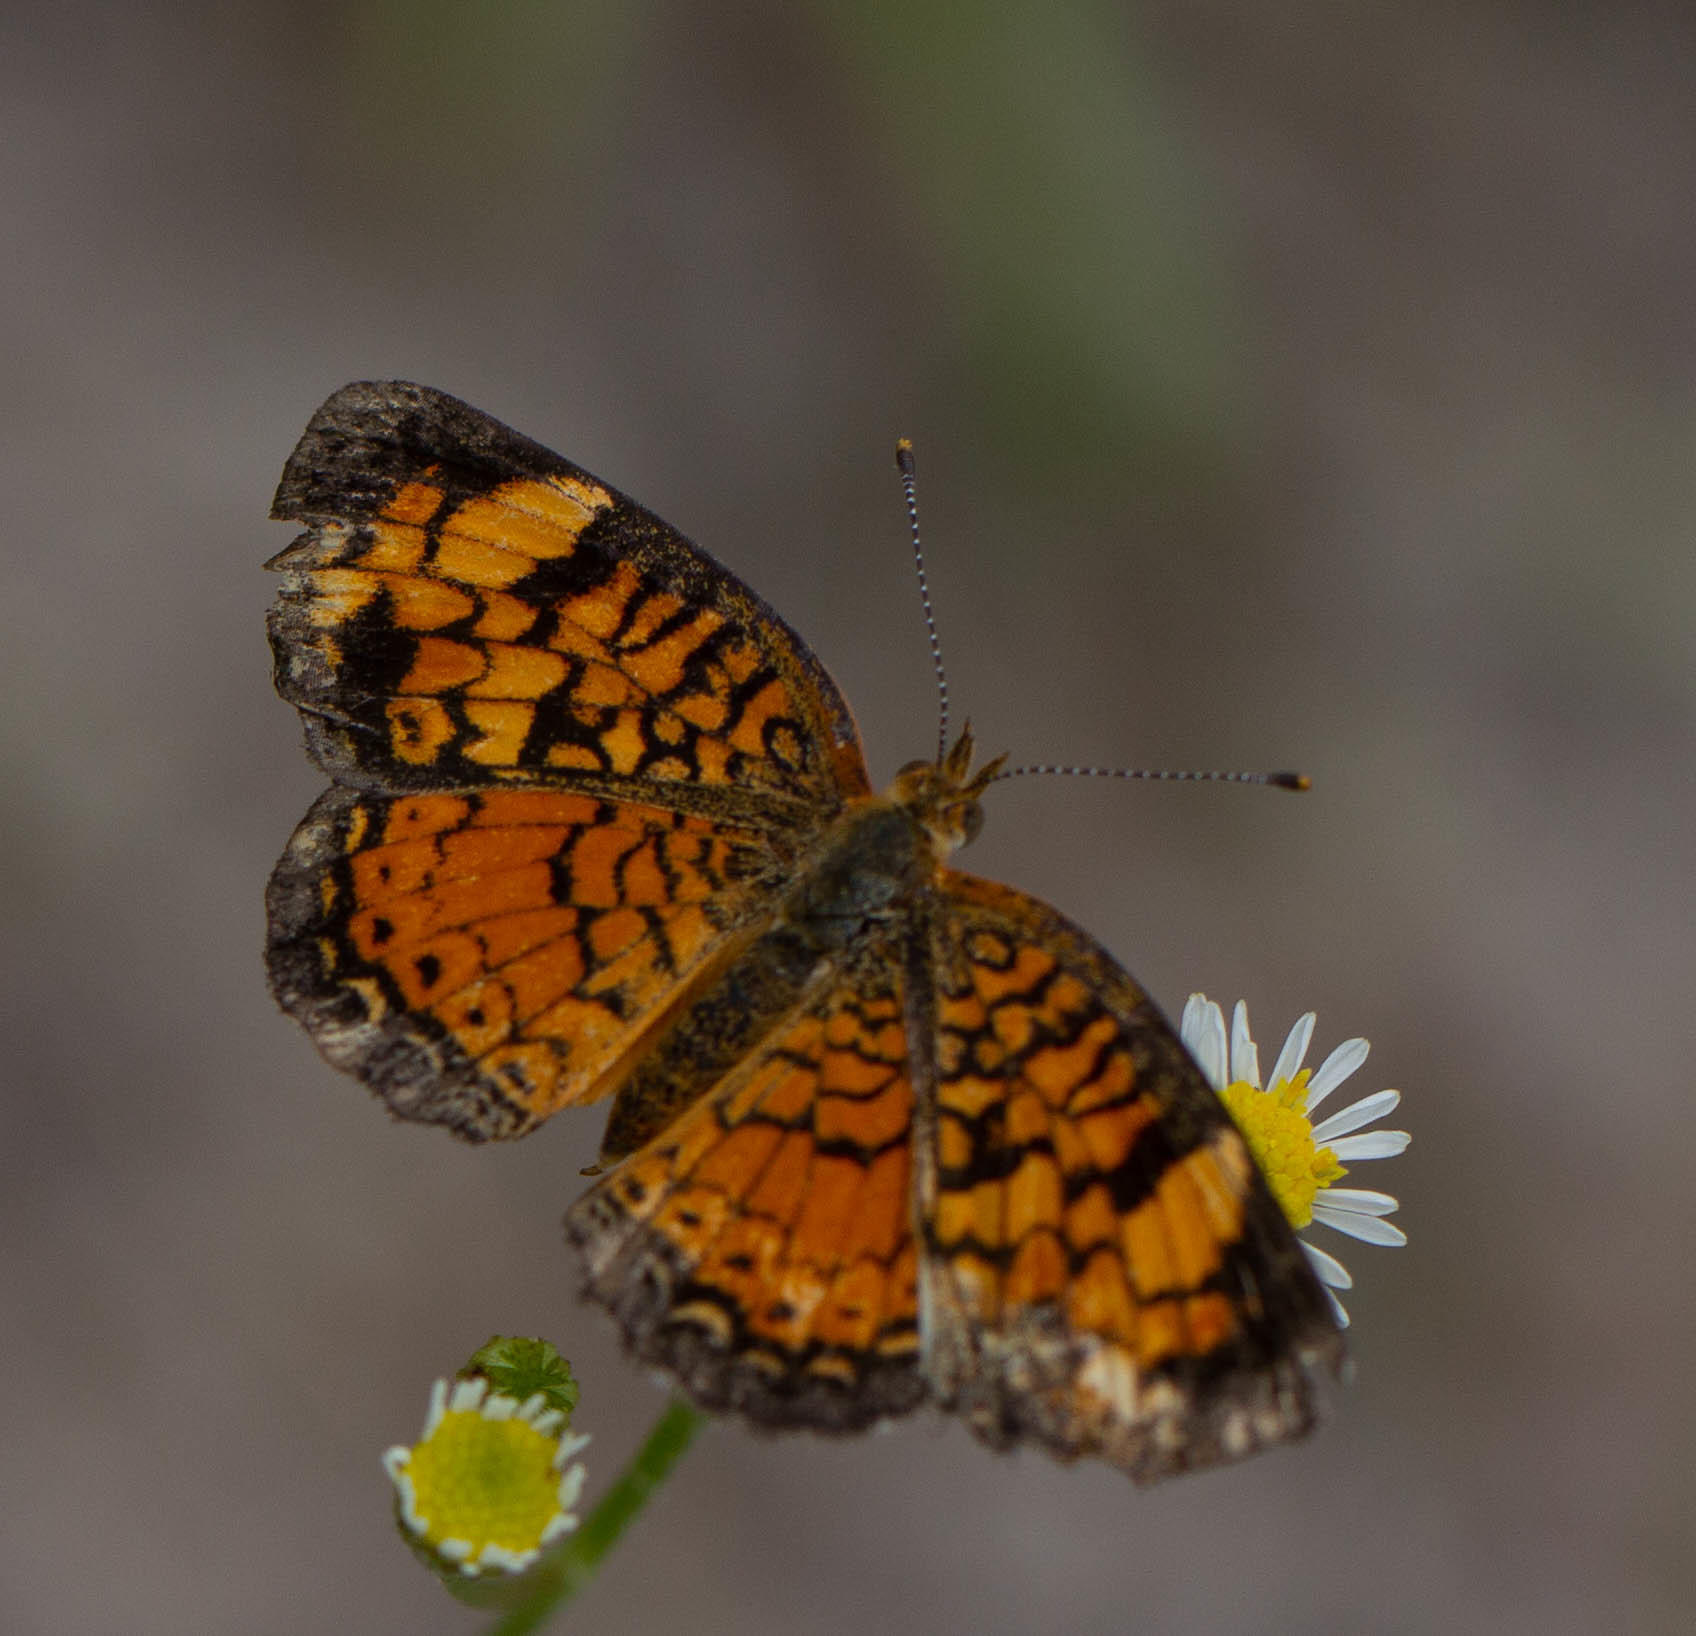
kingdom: Animalia
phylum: Arthropoda
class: Insecta
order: Lepidoptera
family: Nymphalidae
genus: Phyciodes
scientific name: Phyciodes tharos
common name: Pearl crescent
